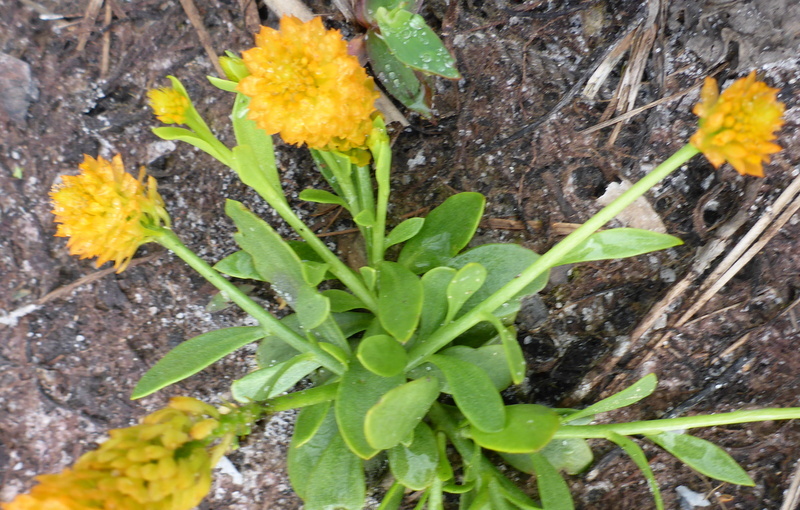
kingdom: Plantae
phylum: Tracheophyta
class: Magnoliopsida
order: Fabales
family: Polygalaceae
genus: Polygala
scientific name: Polygala lutea
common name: Orange milkwort
